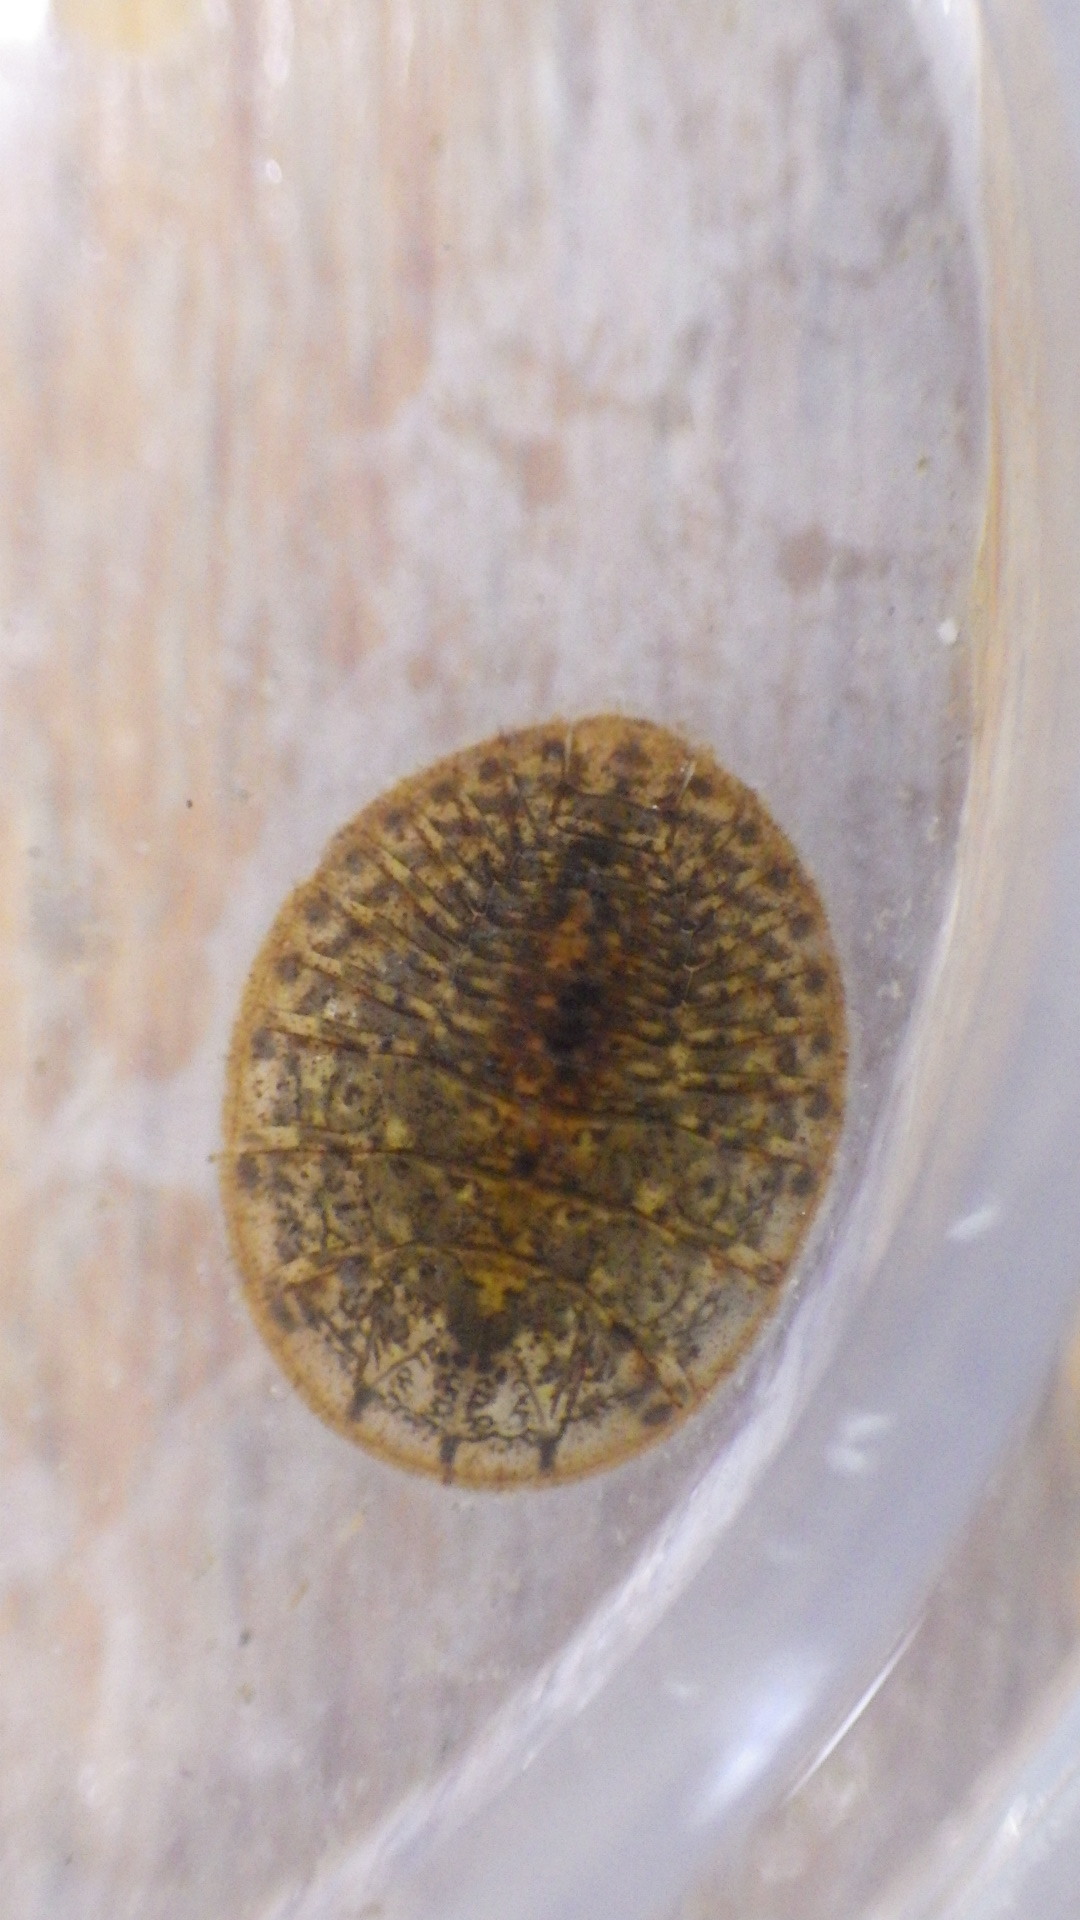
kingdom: Animalia
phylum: Arthropoda
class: Insecta
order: Coleoptera
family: Psephenidae
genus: Psephenus
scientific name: Psephenus herricki
